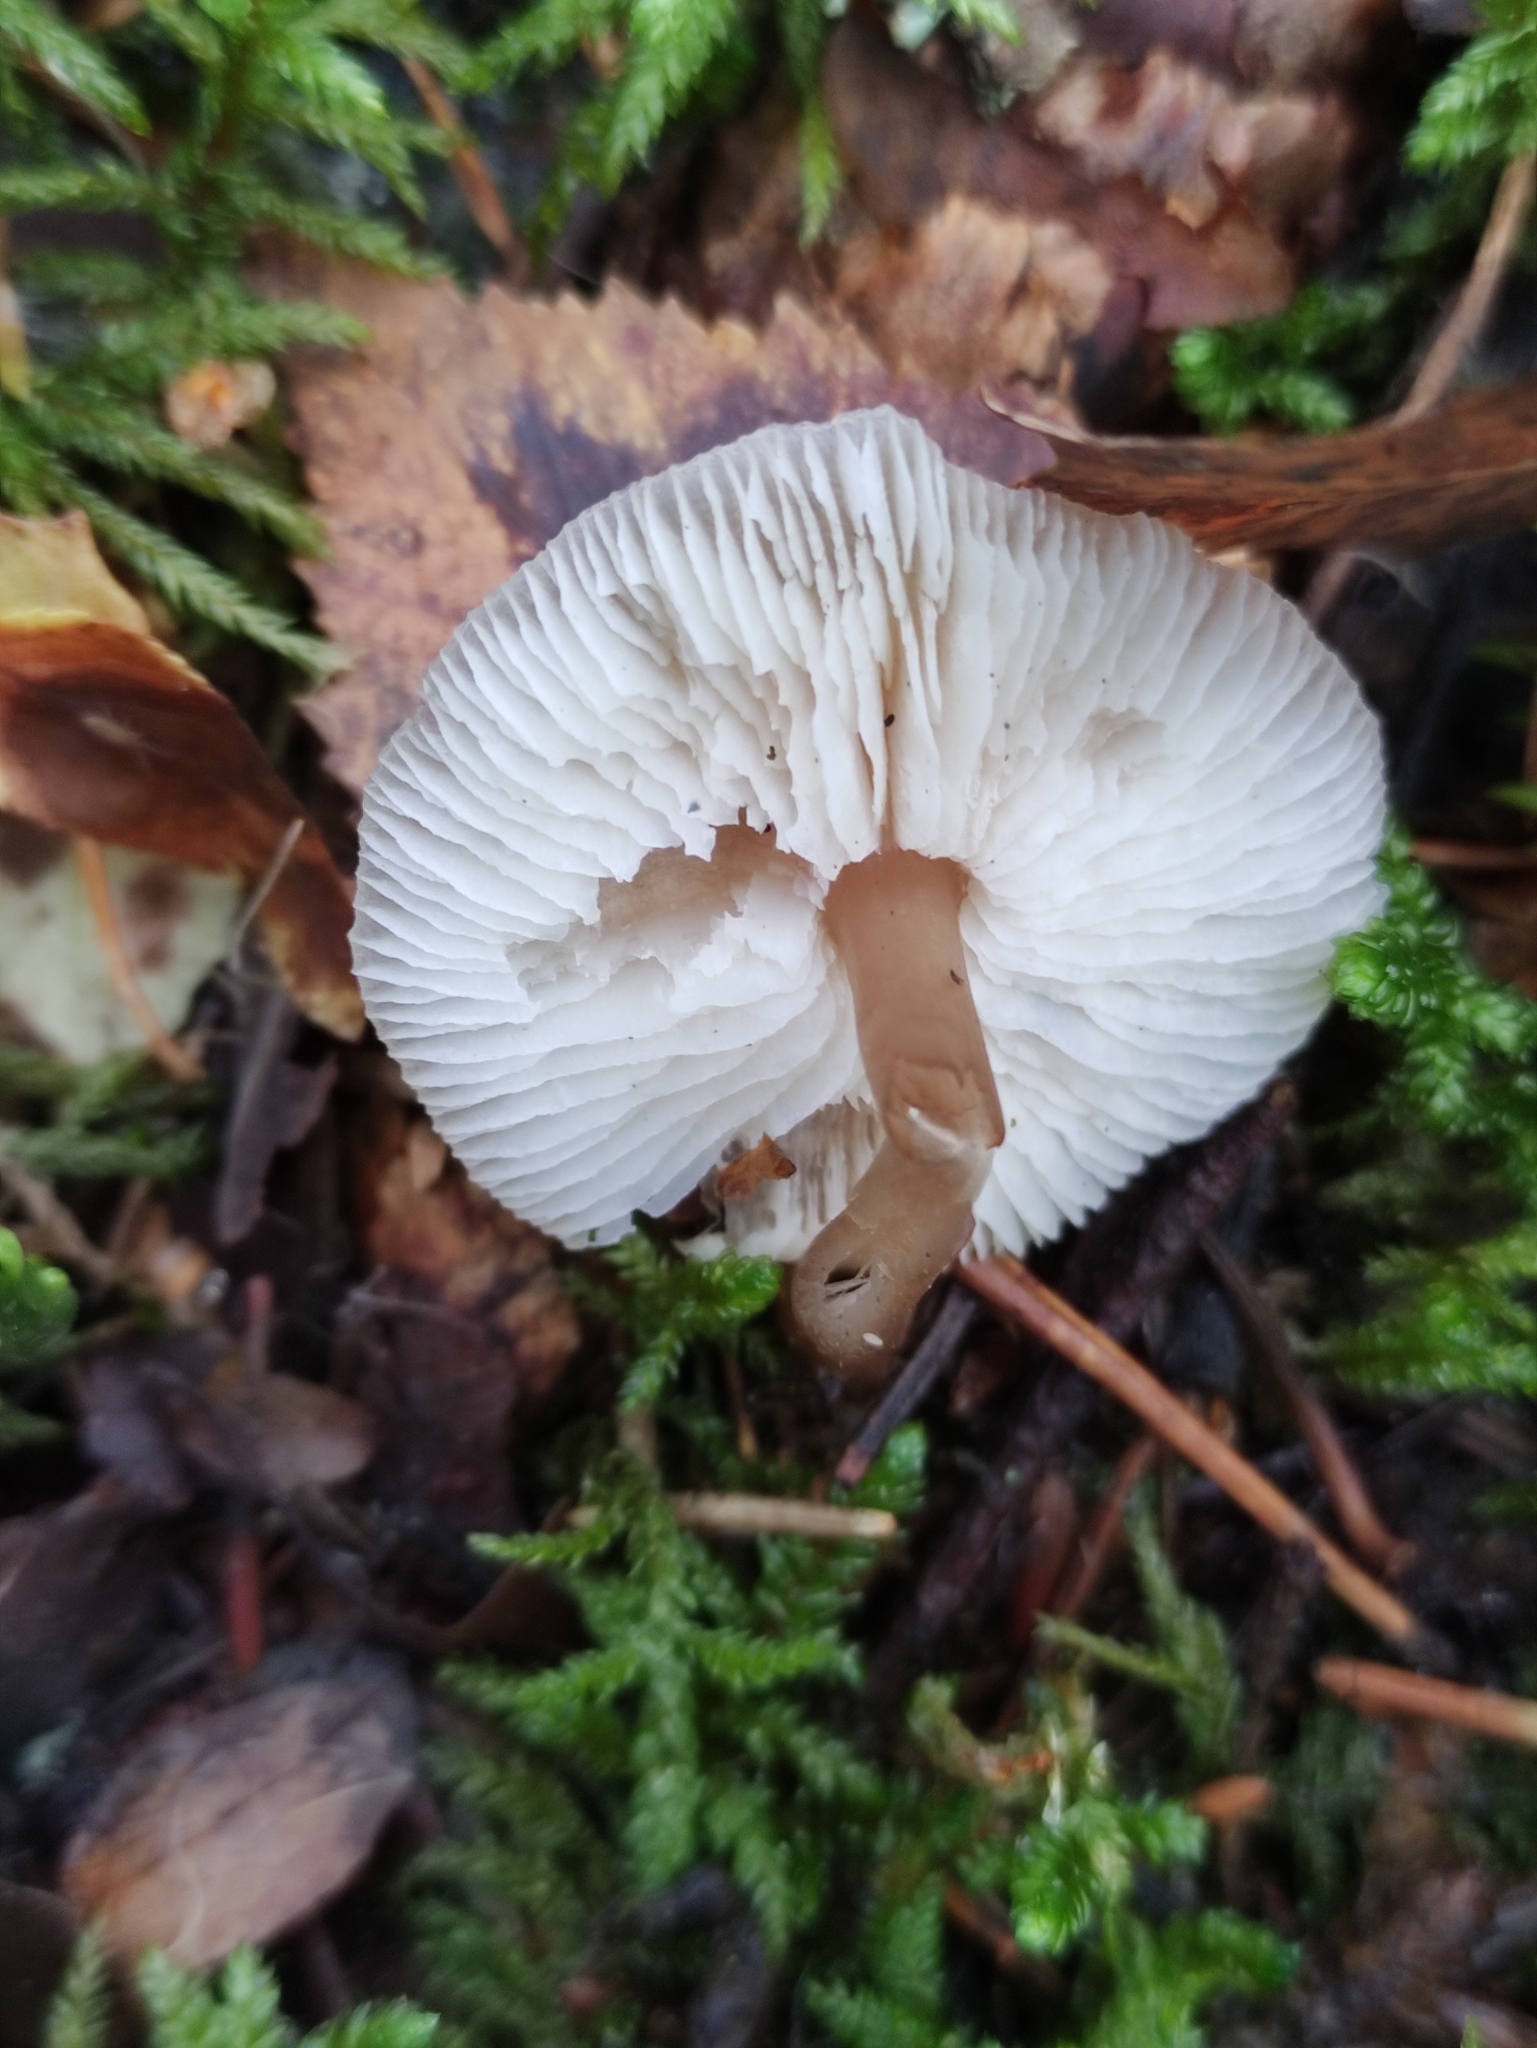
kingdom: Fungi
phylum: Basidiomycota
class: Agaricomycetes
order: Agaricales
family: Omphalotaceae
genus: Rhodocollybia
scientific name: Rhodocollybia asema
